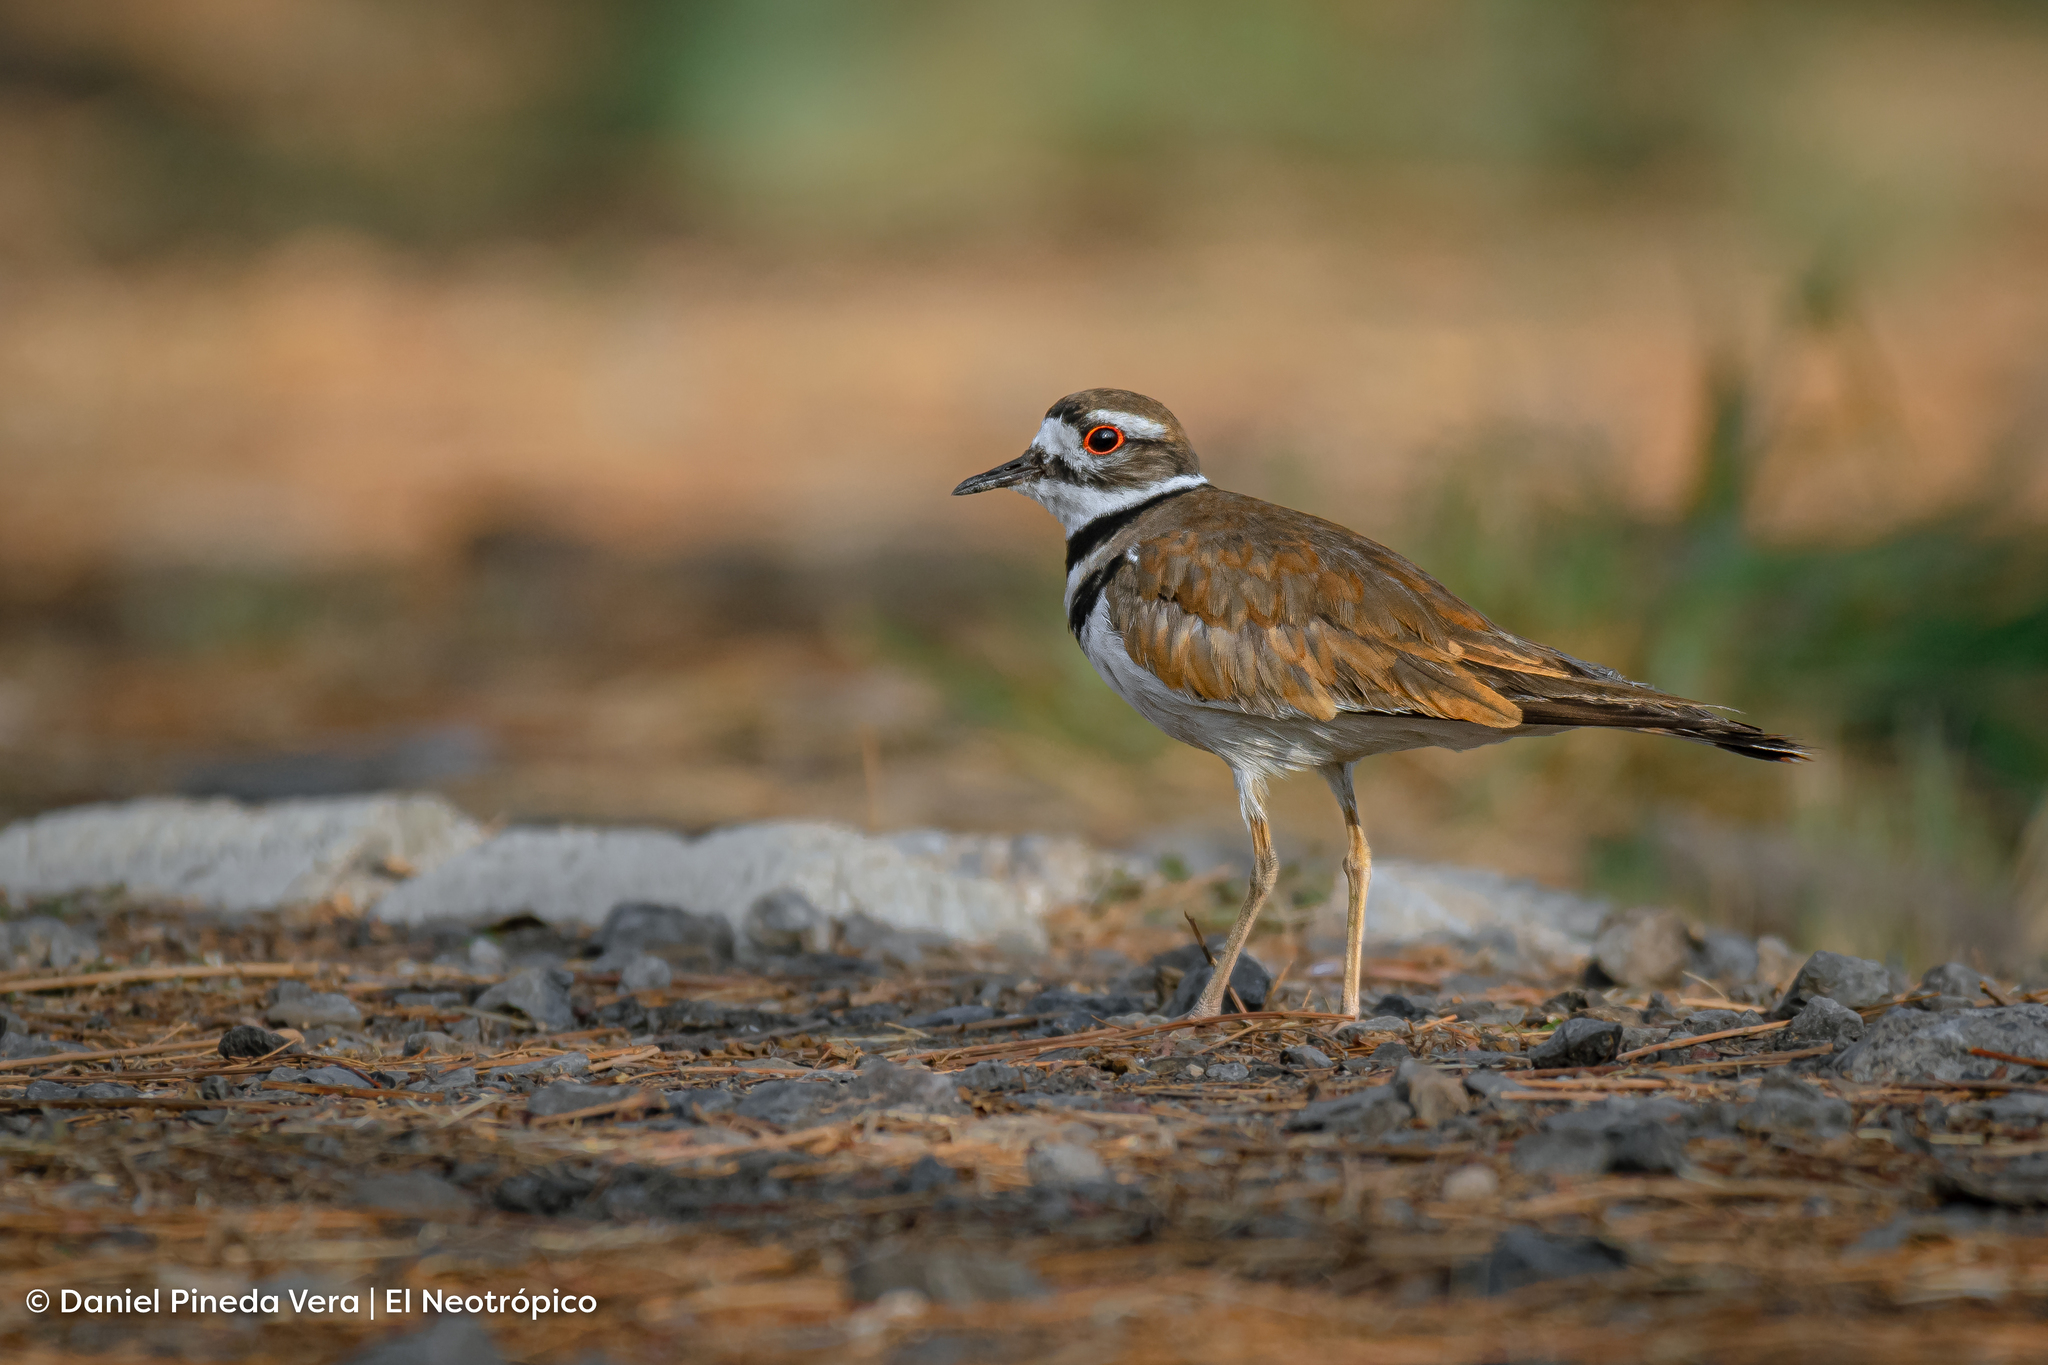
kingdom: Animalia
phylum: Chordata
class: Aves
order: Charadriiformes
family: Charadriidae
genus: Charadrius
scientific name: Charadrius vociferus
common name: Killdeer
